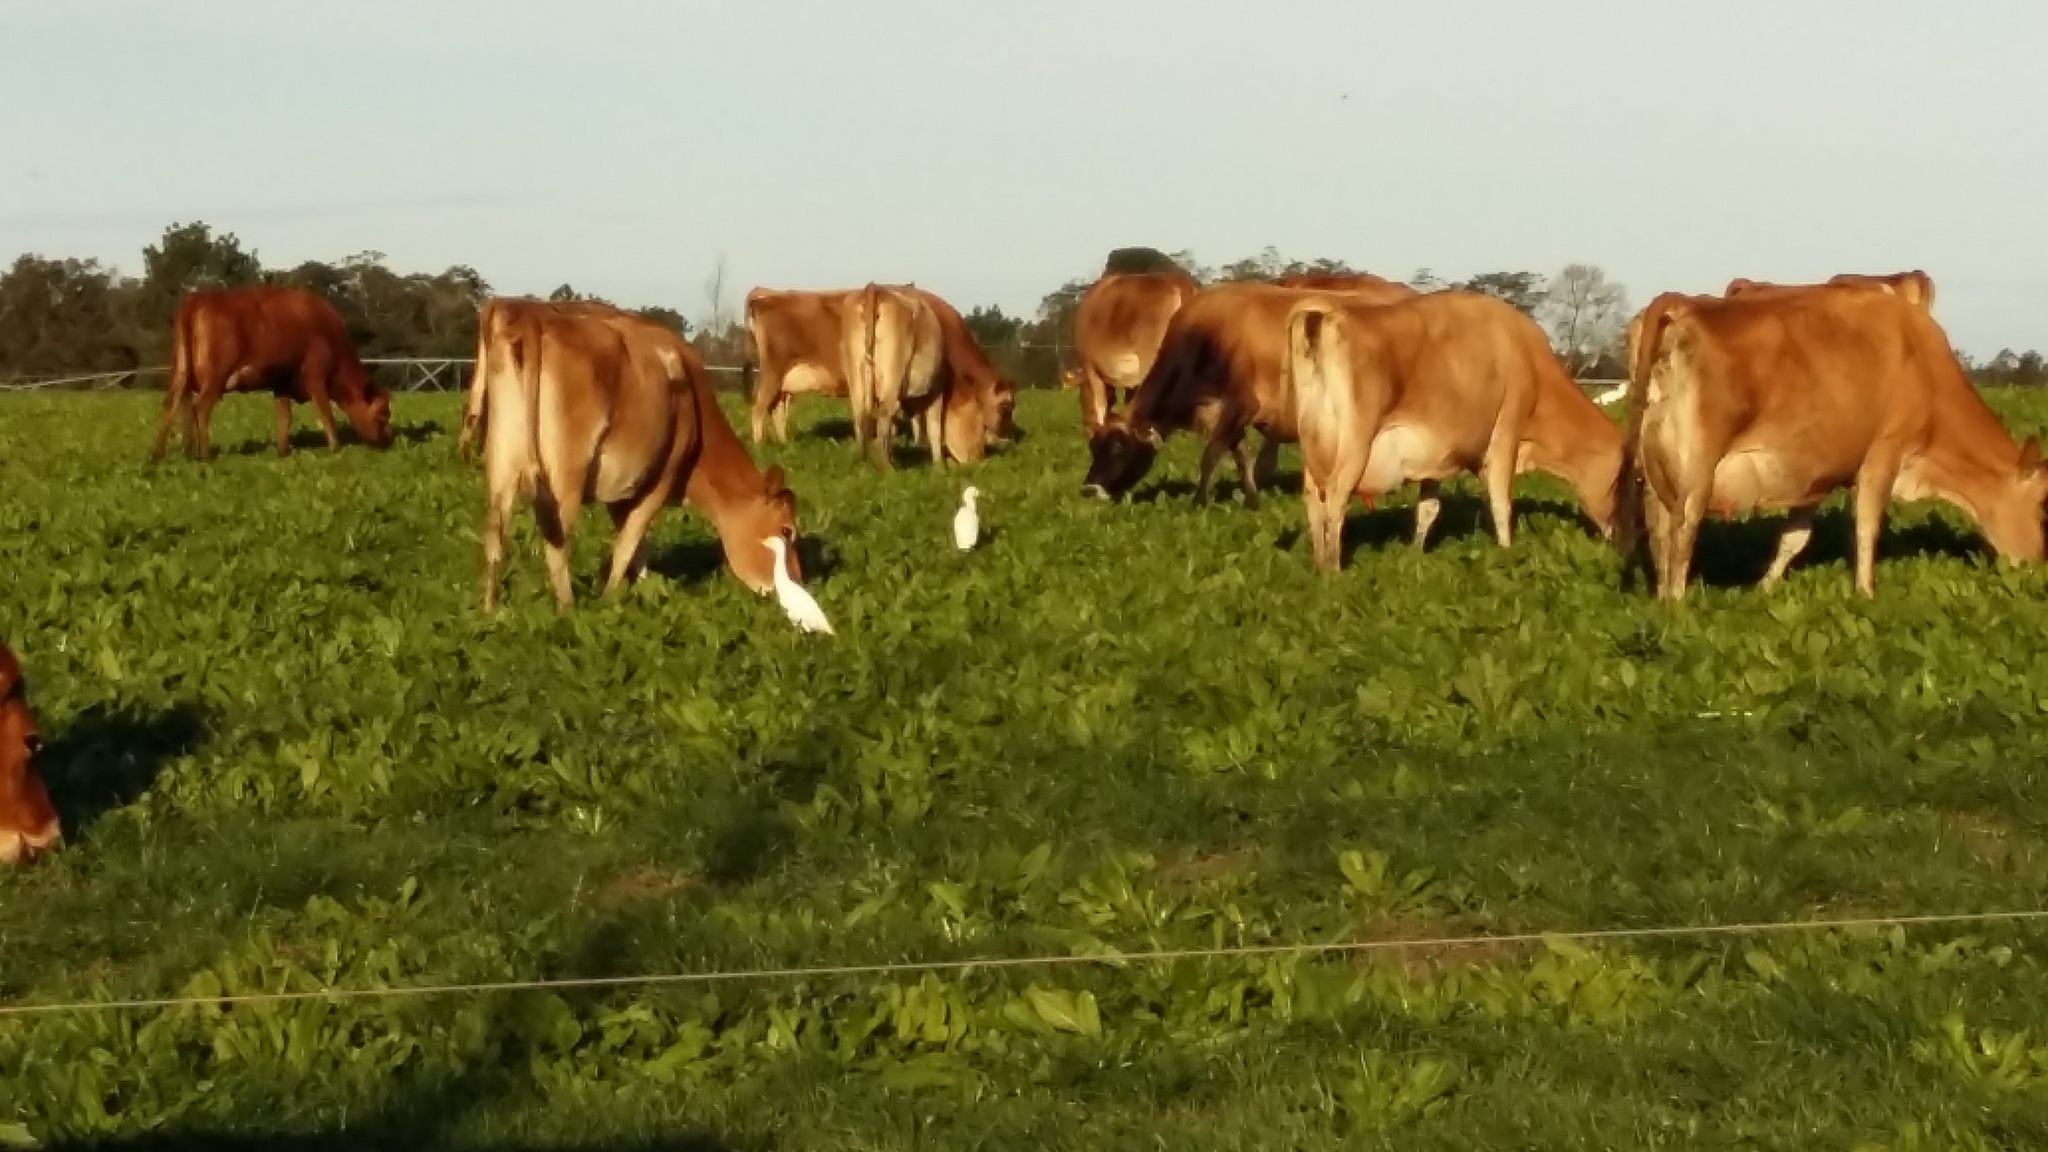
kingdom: Animalia
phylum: Chordata
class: Aves
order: Pelecaniformes
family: Ardeidae
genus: Bubulcus
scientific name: Bubulcus ibis
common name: Cattle egret
